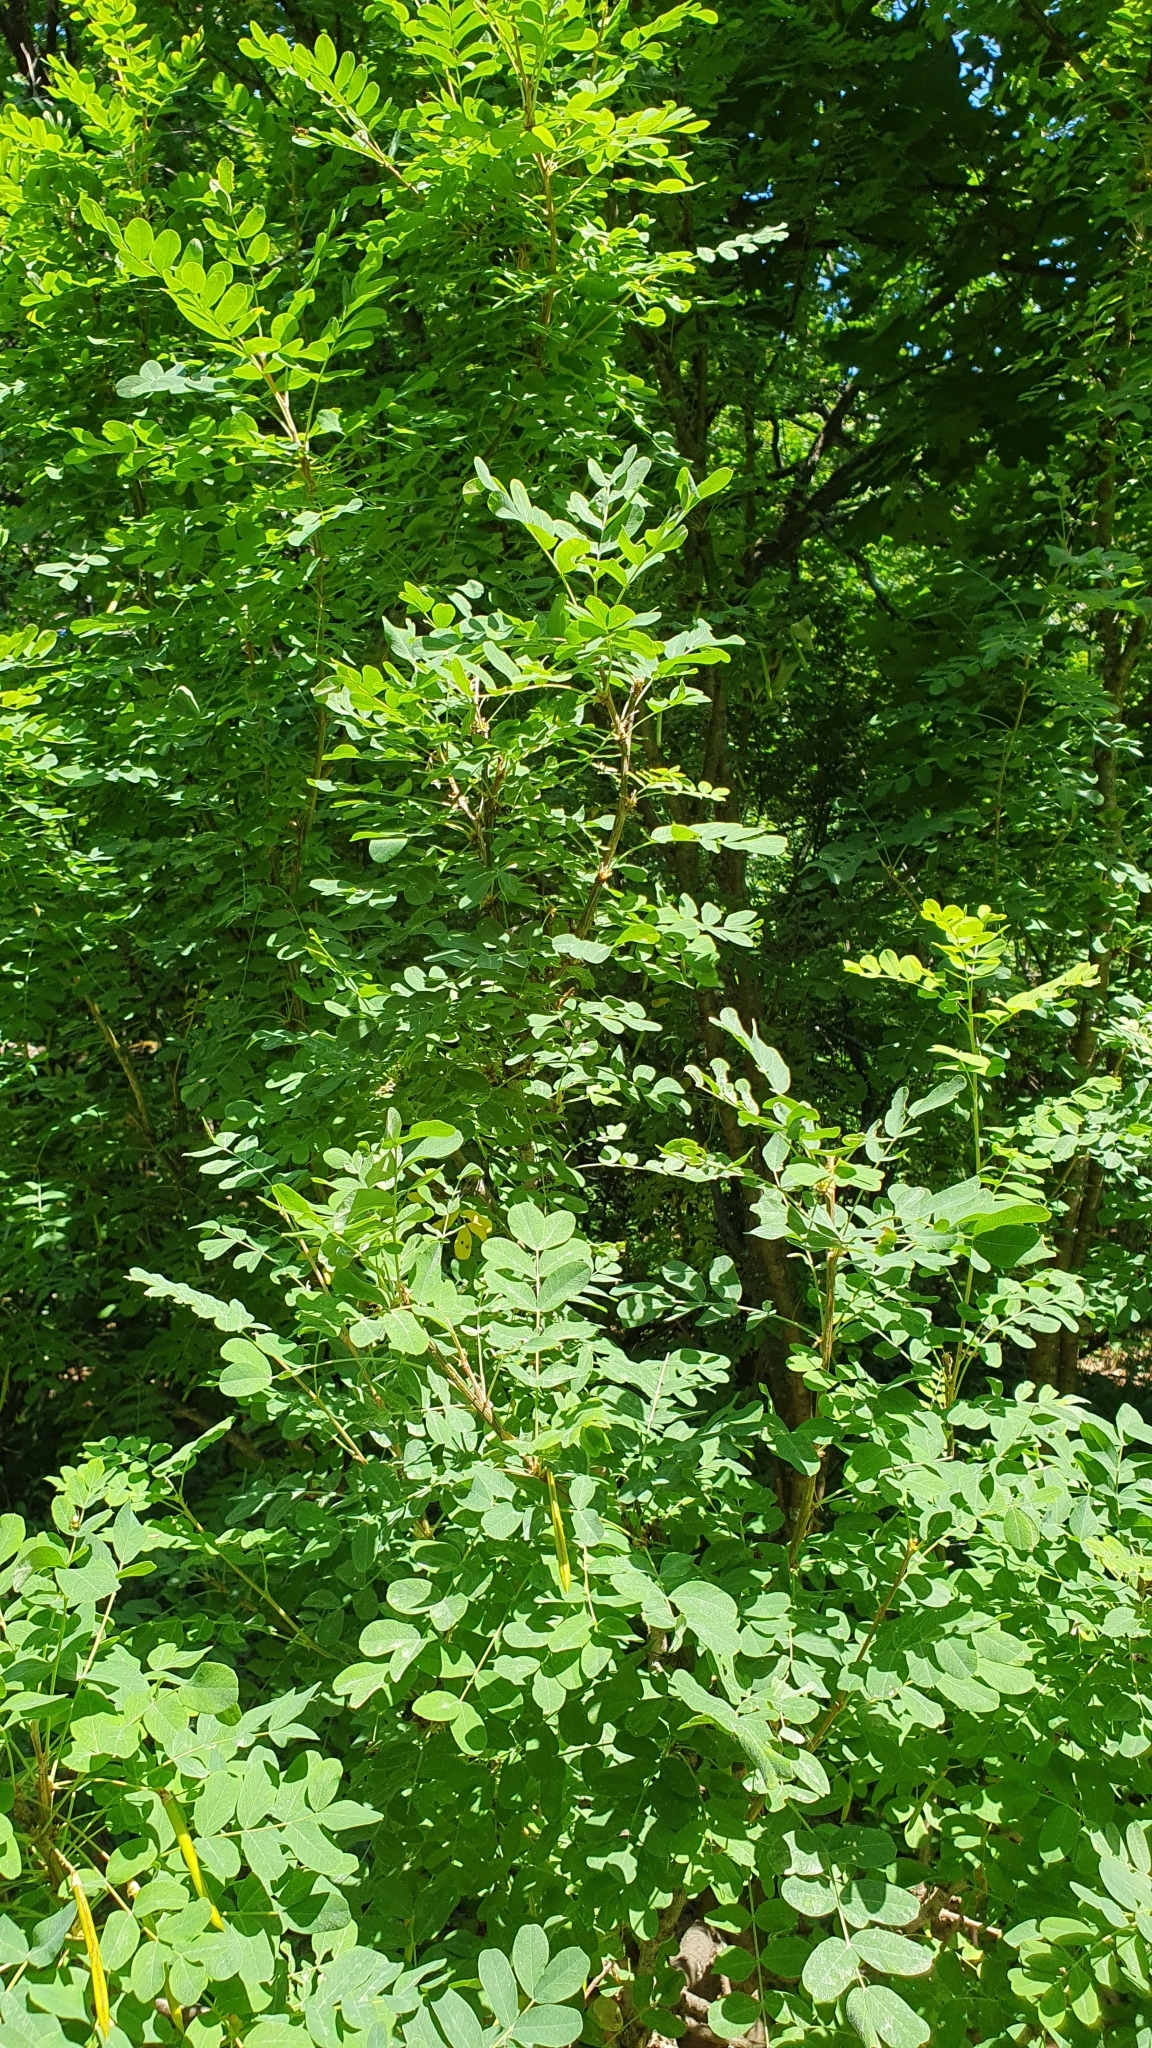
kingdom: Plantae
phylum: Tracheophyta
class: Magnoliopsida
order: Fabales
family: Fabaceae
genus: Caragana
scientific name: Caragana arborescens
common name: Siberian peashrub
